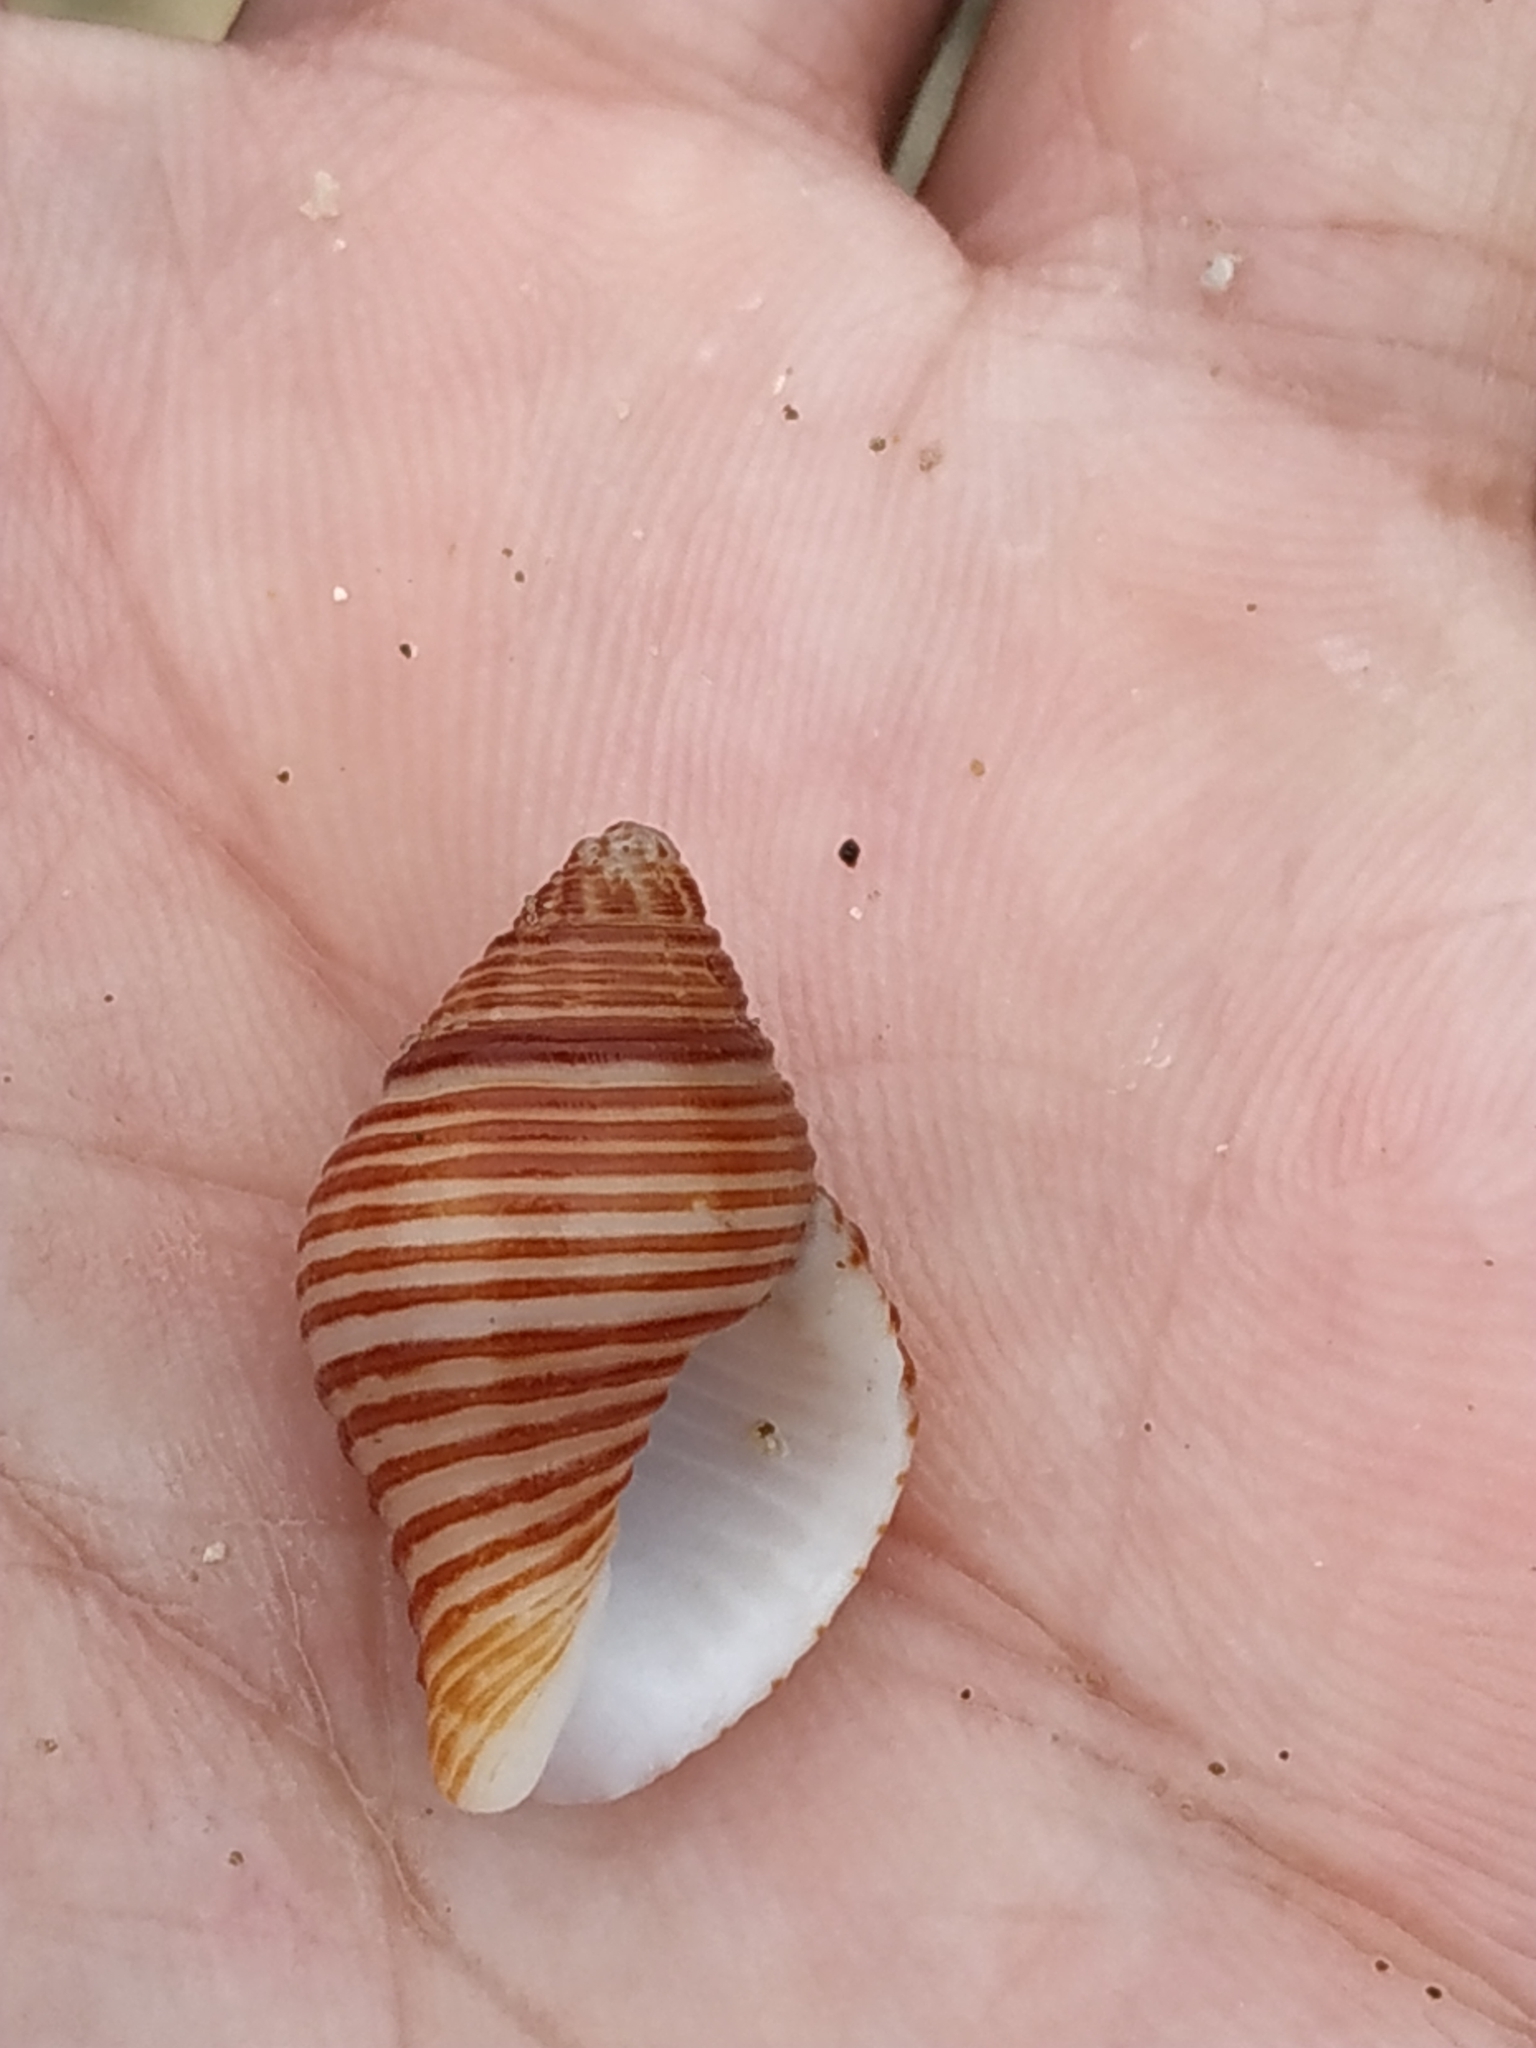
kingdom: Animalia
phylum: Mollusca
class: Gastropoda
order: Neogastropoda
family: Pisaniidae
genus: Pollia
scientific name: Pollia undosa
